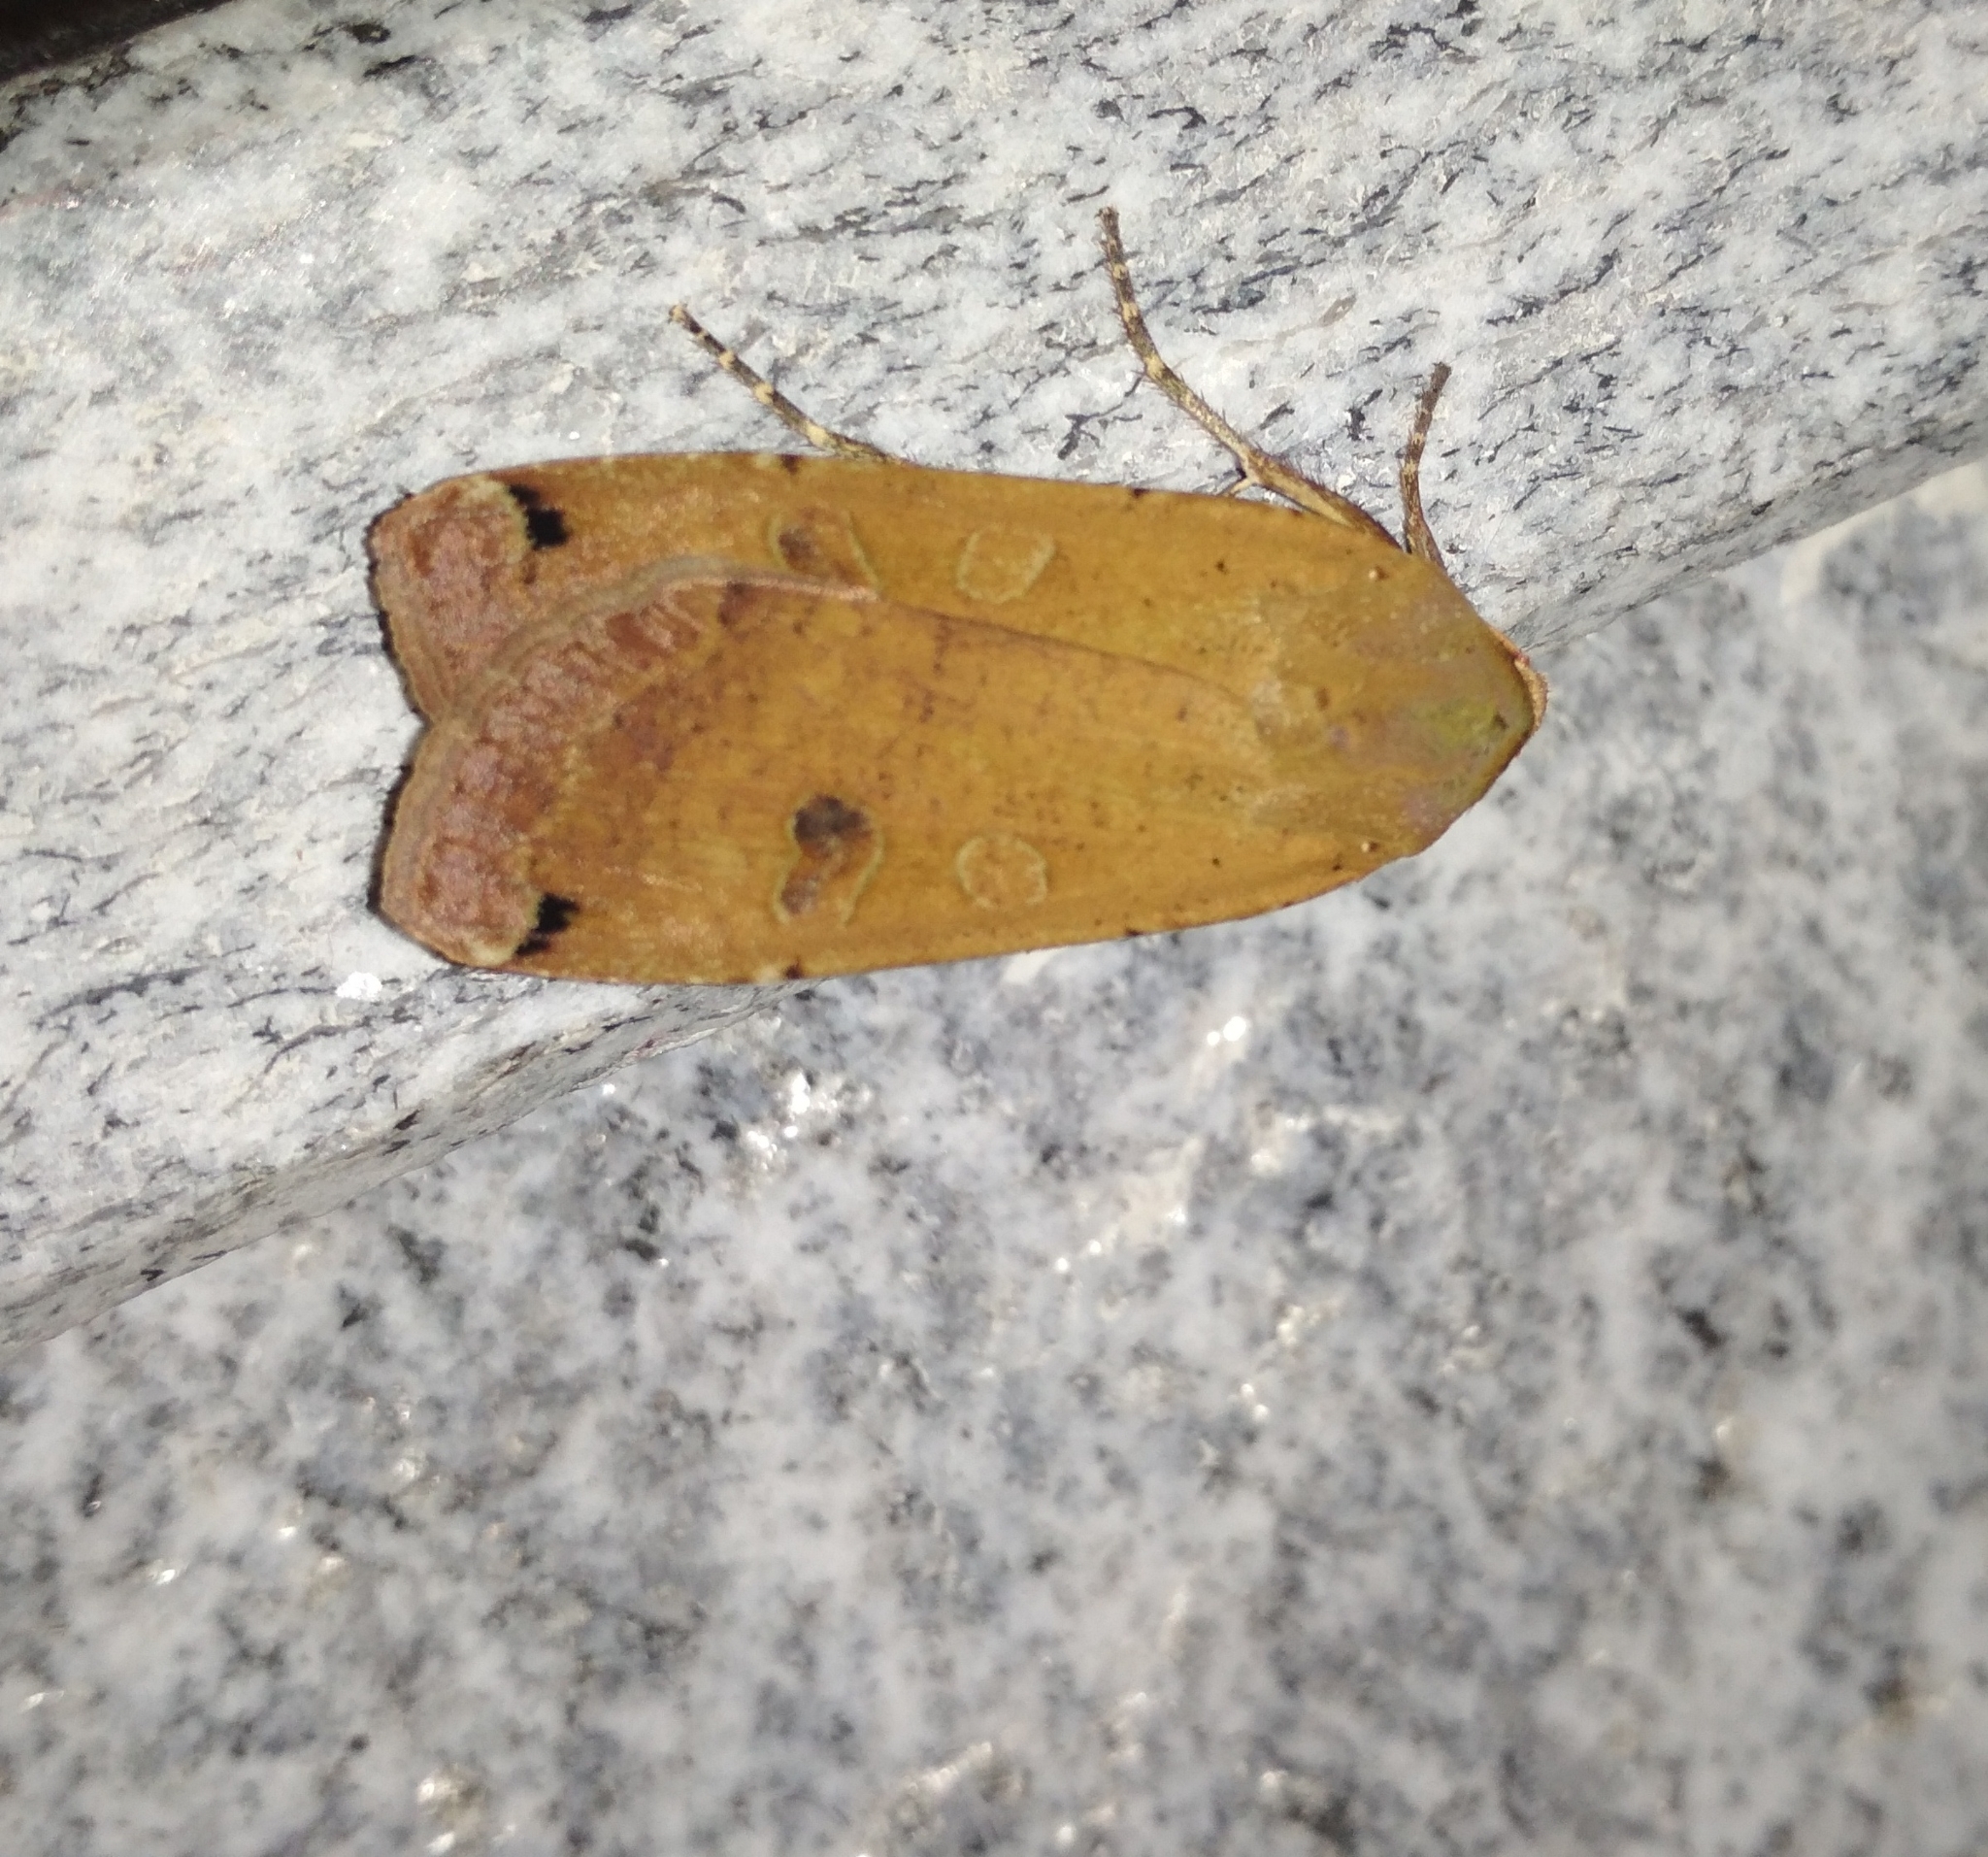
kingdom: Animalia
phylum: Arthropoda
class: Insecta
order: Lepidoptera
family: Noctuidae
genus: Noctua
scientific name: Noctua pronuba
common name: Large yellow underwing
